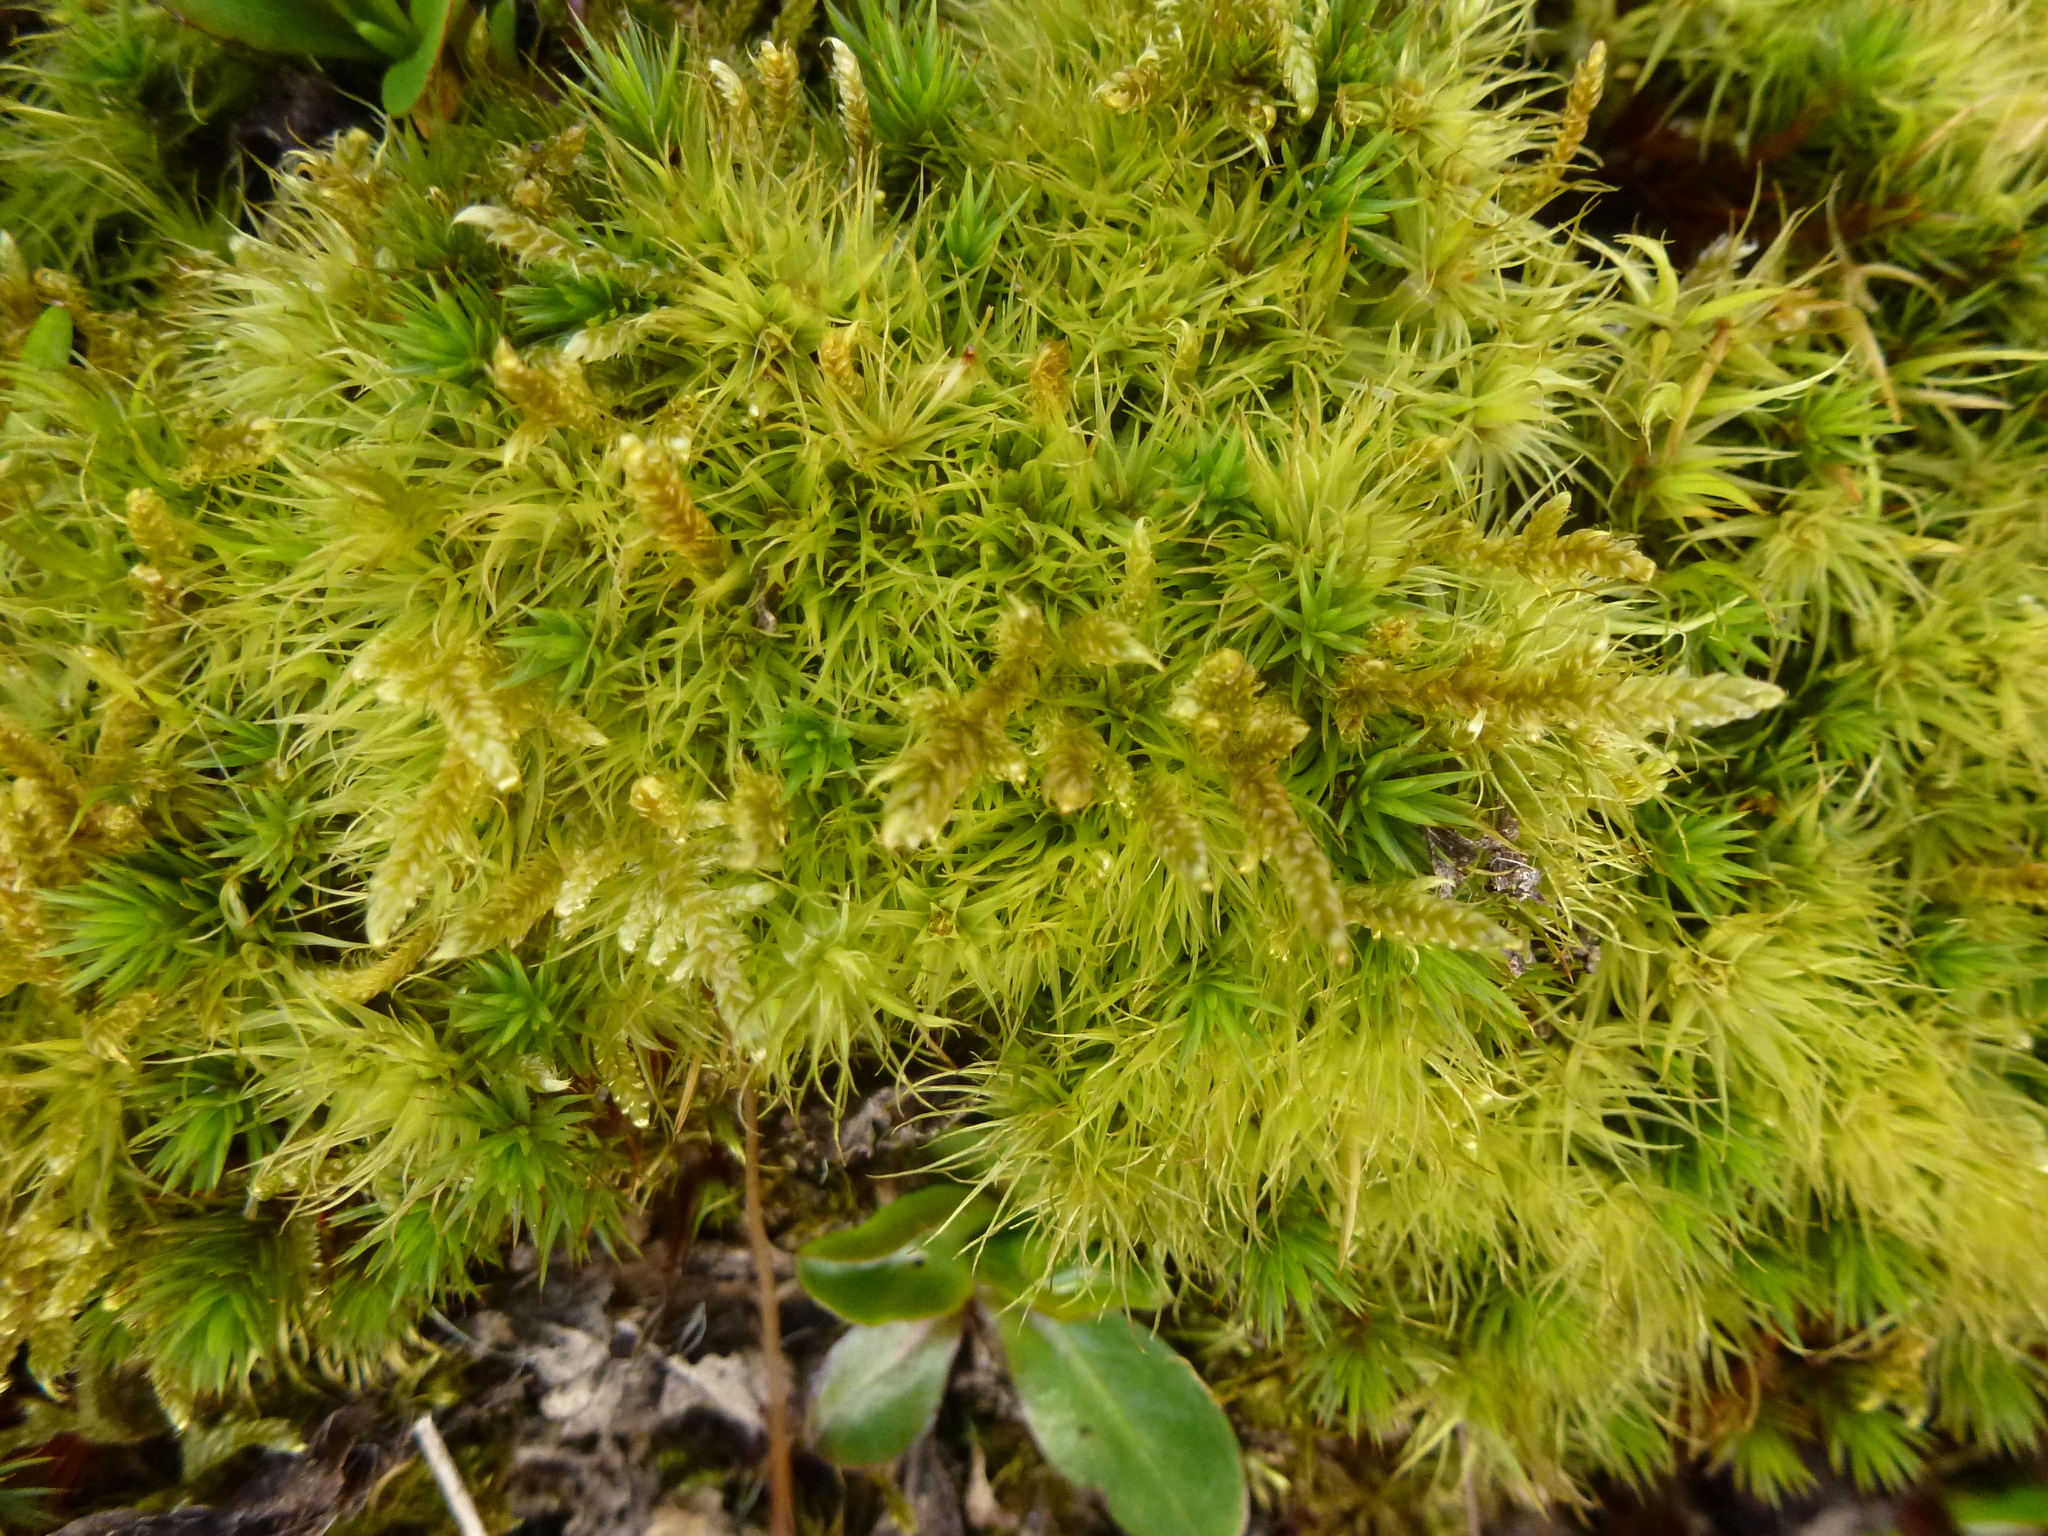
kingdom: Plantae
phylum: Bryophyta
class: Bryopsida
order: Dicranales
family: Dicranaceae
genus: Dicranum
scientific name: Dicranum scoparium
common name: Broom fork-moss
